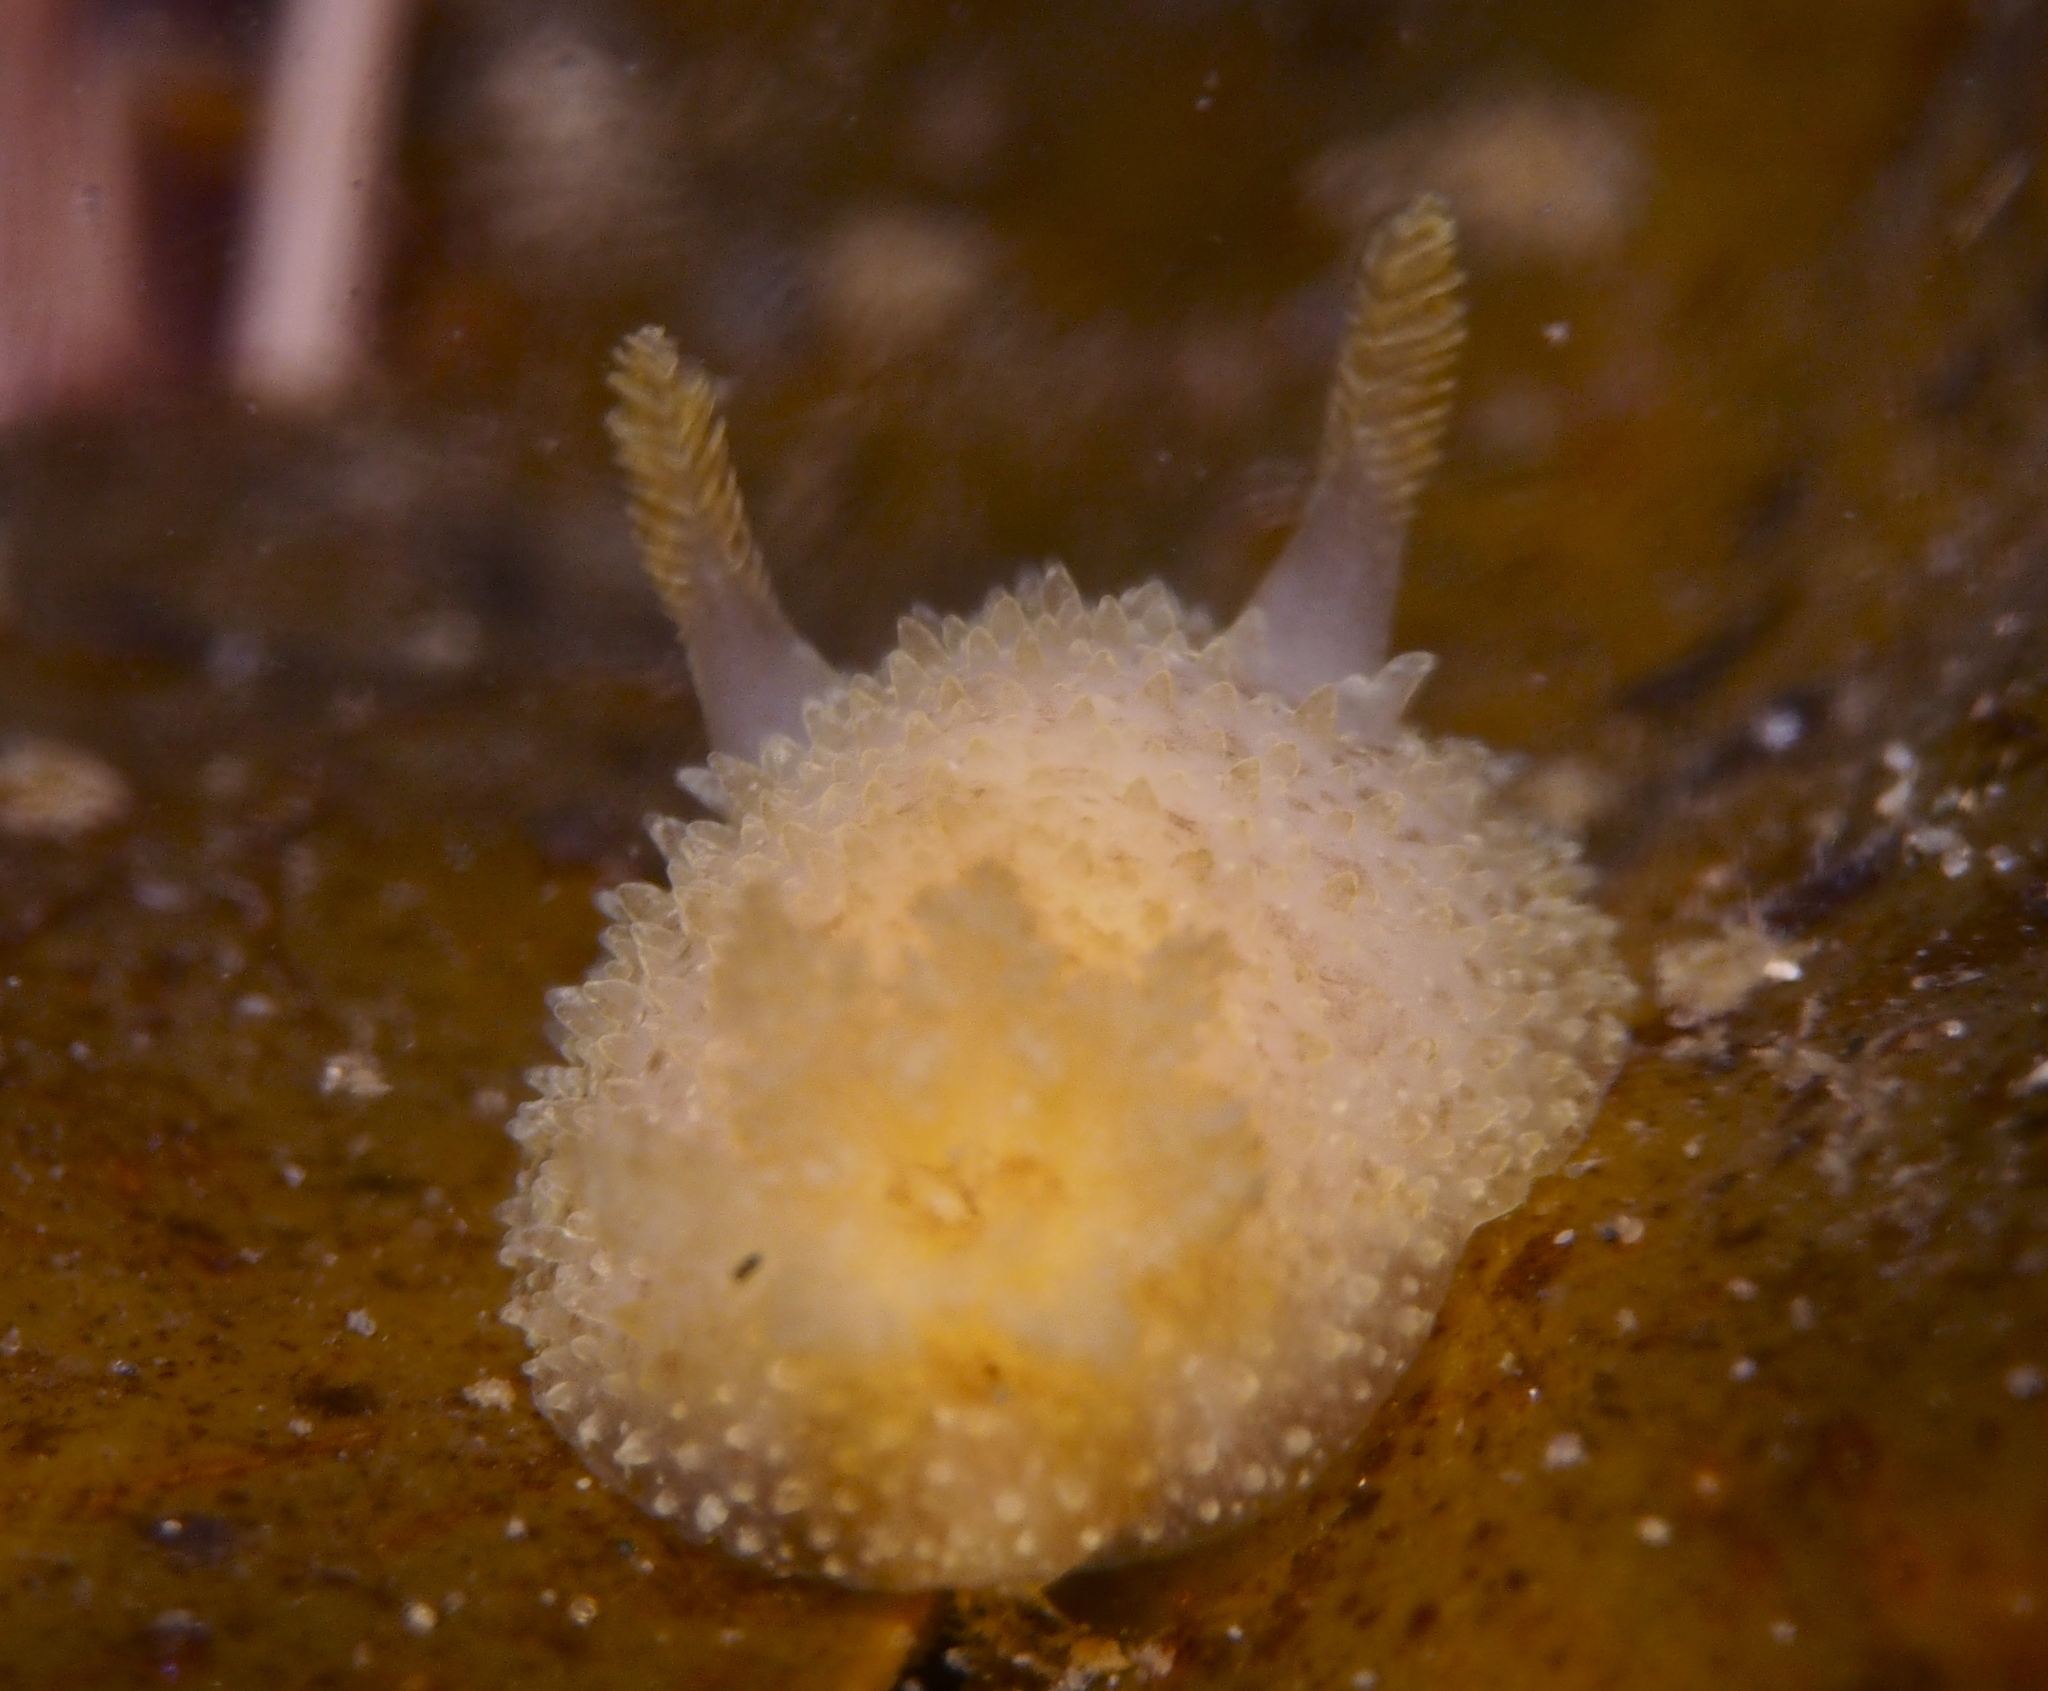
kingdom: Animalia
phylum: Mollusca
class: Gastropoda
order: Nudibranchia
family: Onchidorididae
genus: Acanthodoris
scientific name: Acanthodoris pilosa
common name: Hairy spiny doris
